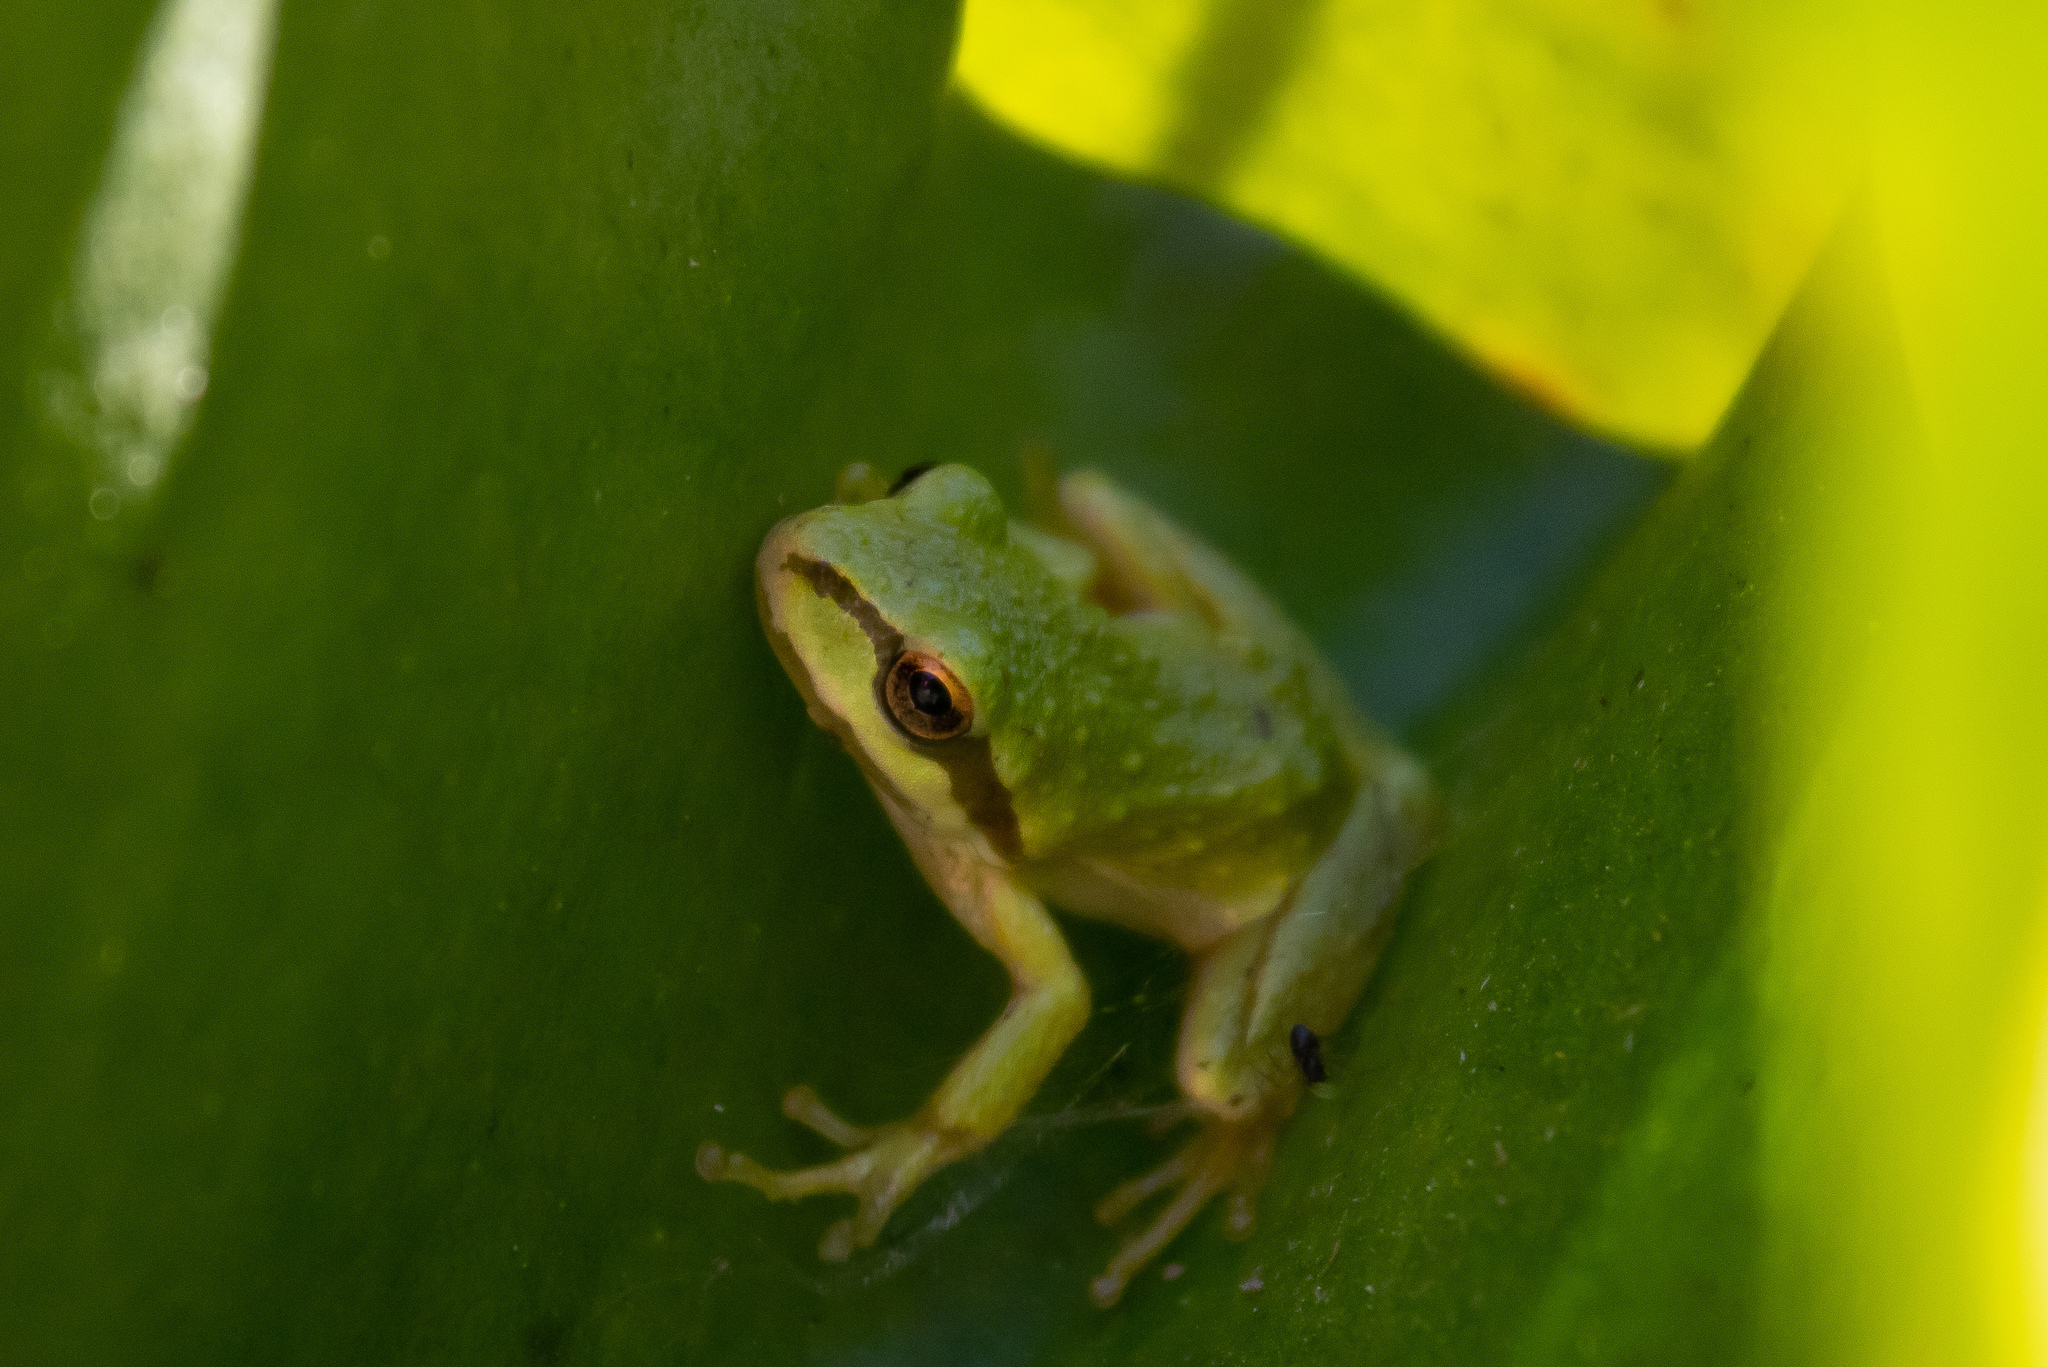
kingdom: Animalia
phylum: Chordata
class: Amphibia
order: Anura
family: Hylidae
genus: Pseudacris
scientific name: Pseudacris regilla
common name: Pacific chorus frog
